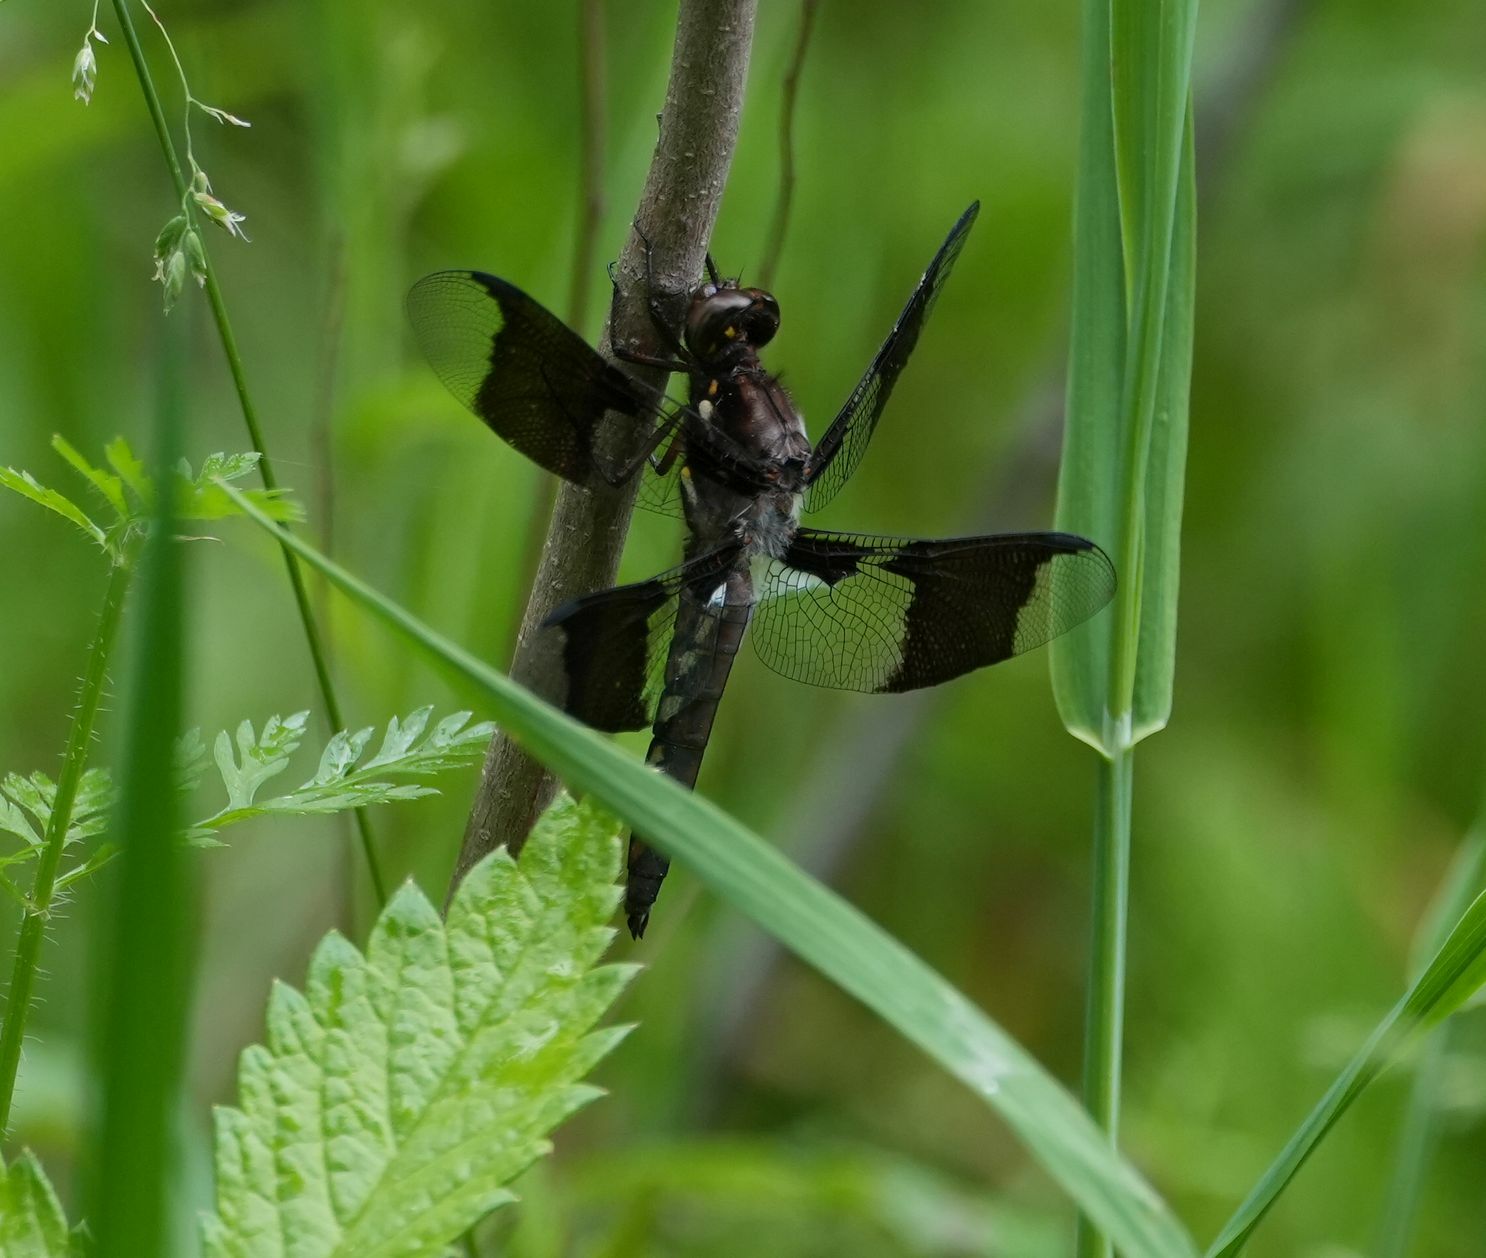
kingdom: Animalia
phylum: Arthropoda
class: Insecta
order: Odonata
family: Libellulidae
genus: Plathemis
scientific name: Plathemis lydia
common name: Common whitetail
